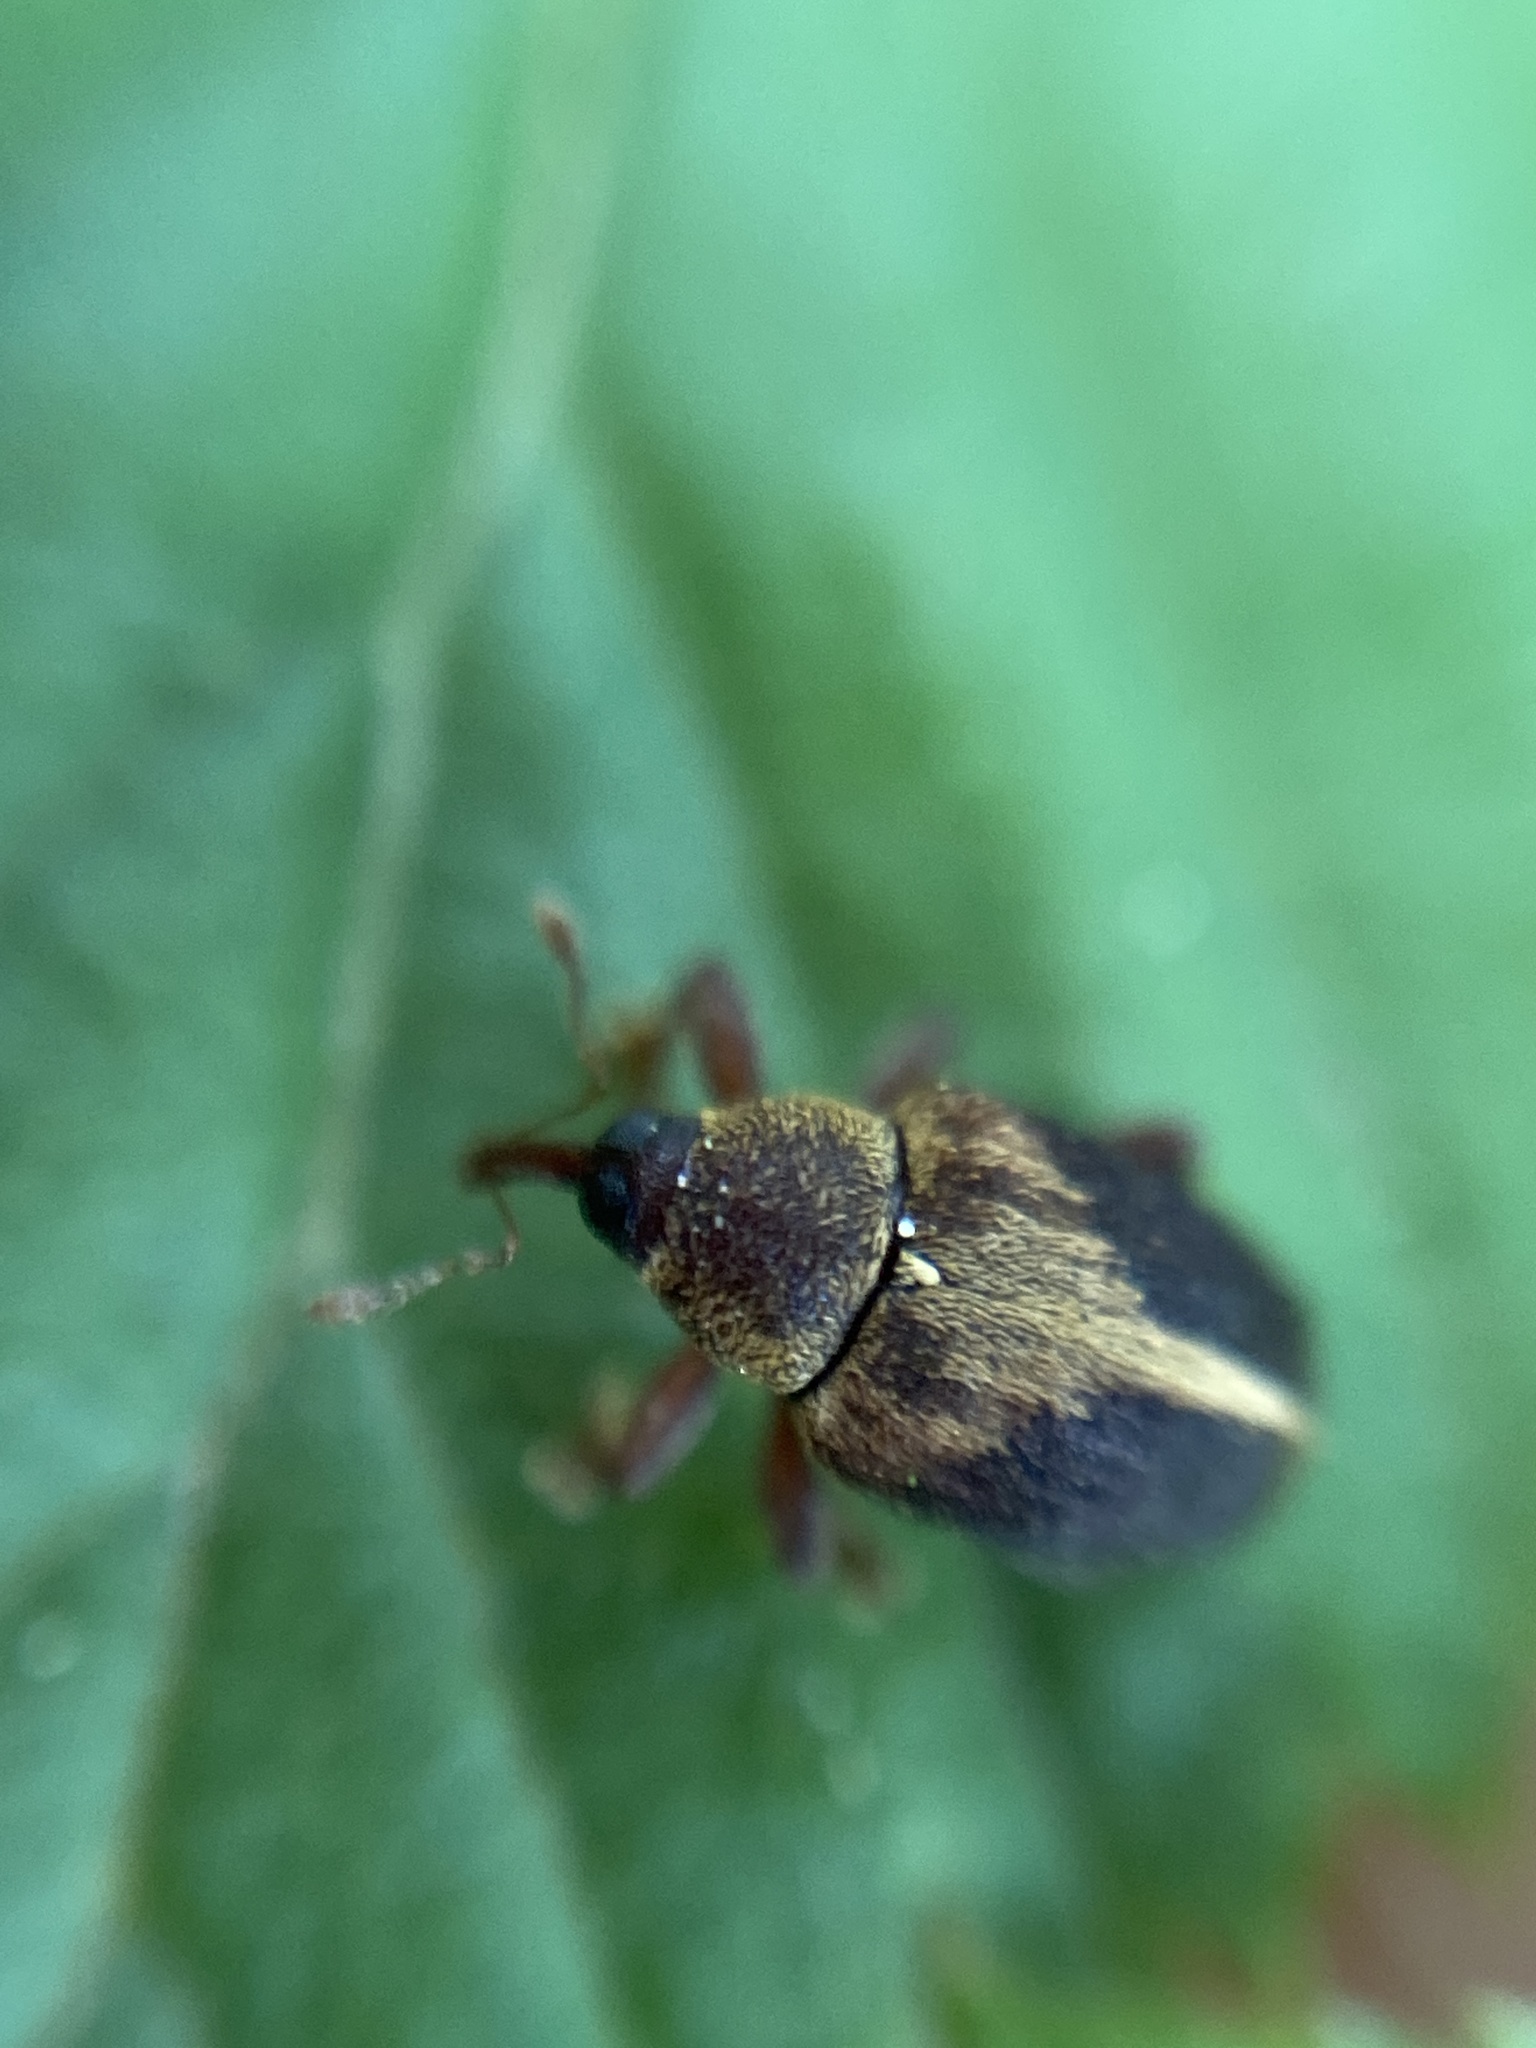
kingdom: Animalia
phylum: Arthropoda
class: Insecta
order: Coleoptera
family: Curculionidae
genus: Lignyodes
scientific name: Lignyodes enucleator
